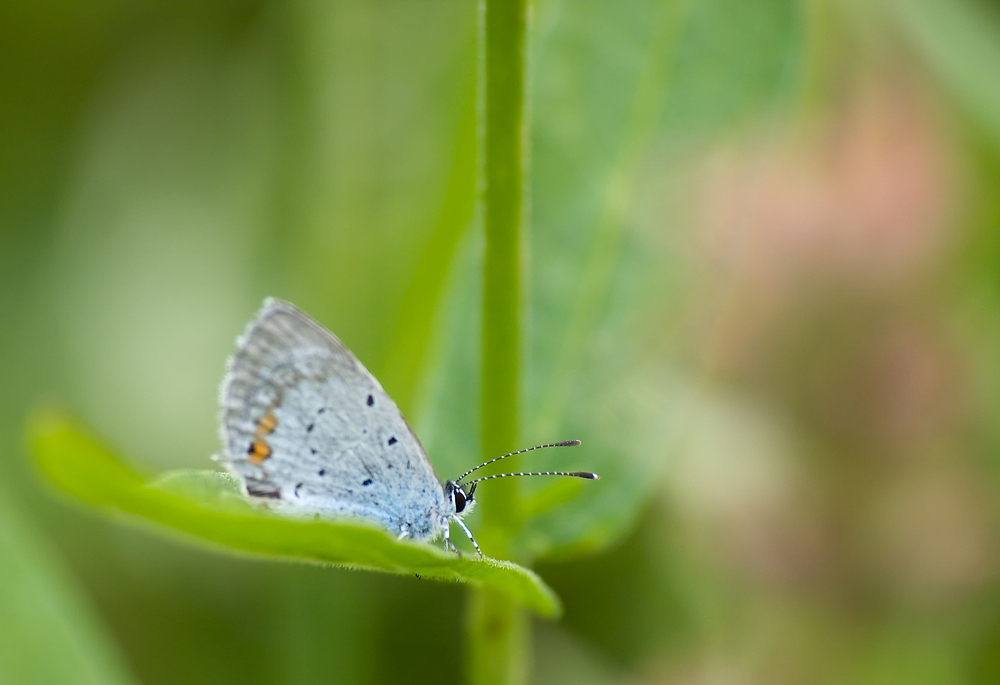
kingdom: Animalia
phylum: Arthropoda
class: Insecta
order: Lepidoptera
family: Lycaenidae
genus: Elkalyce
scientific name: Elkalyce argiades
